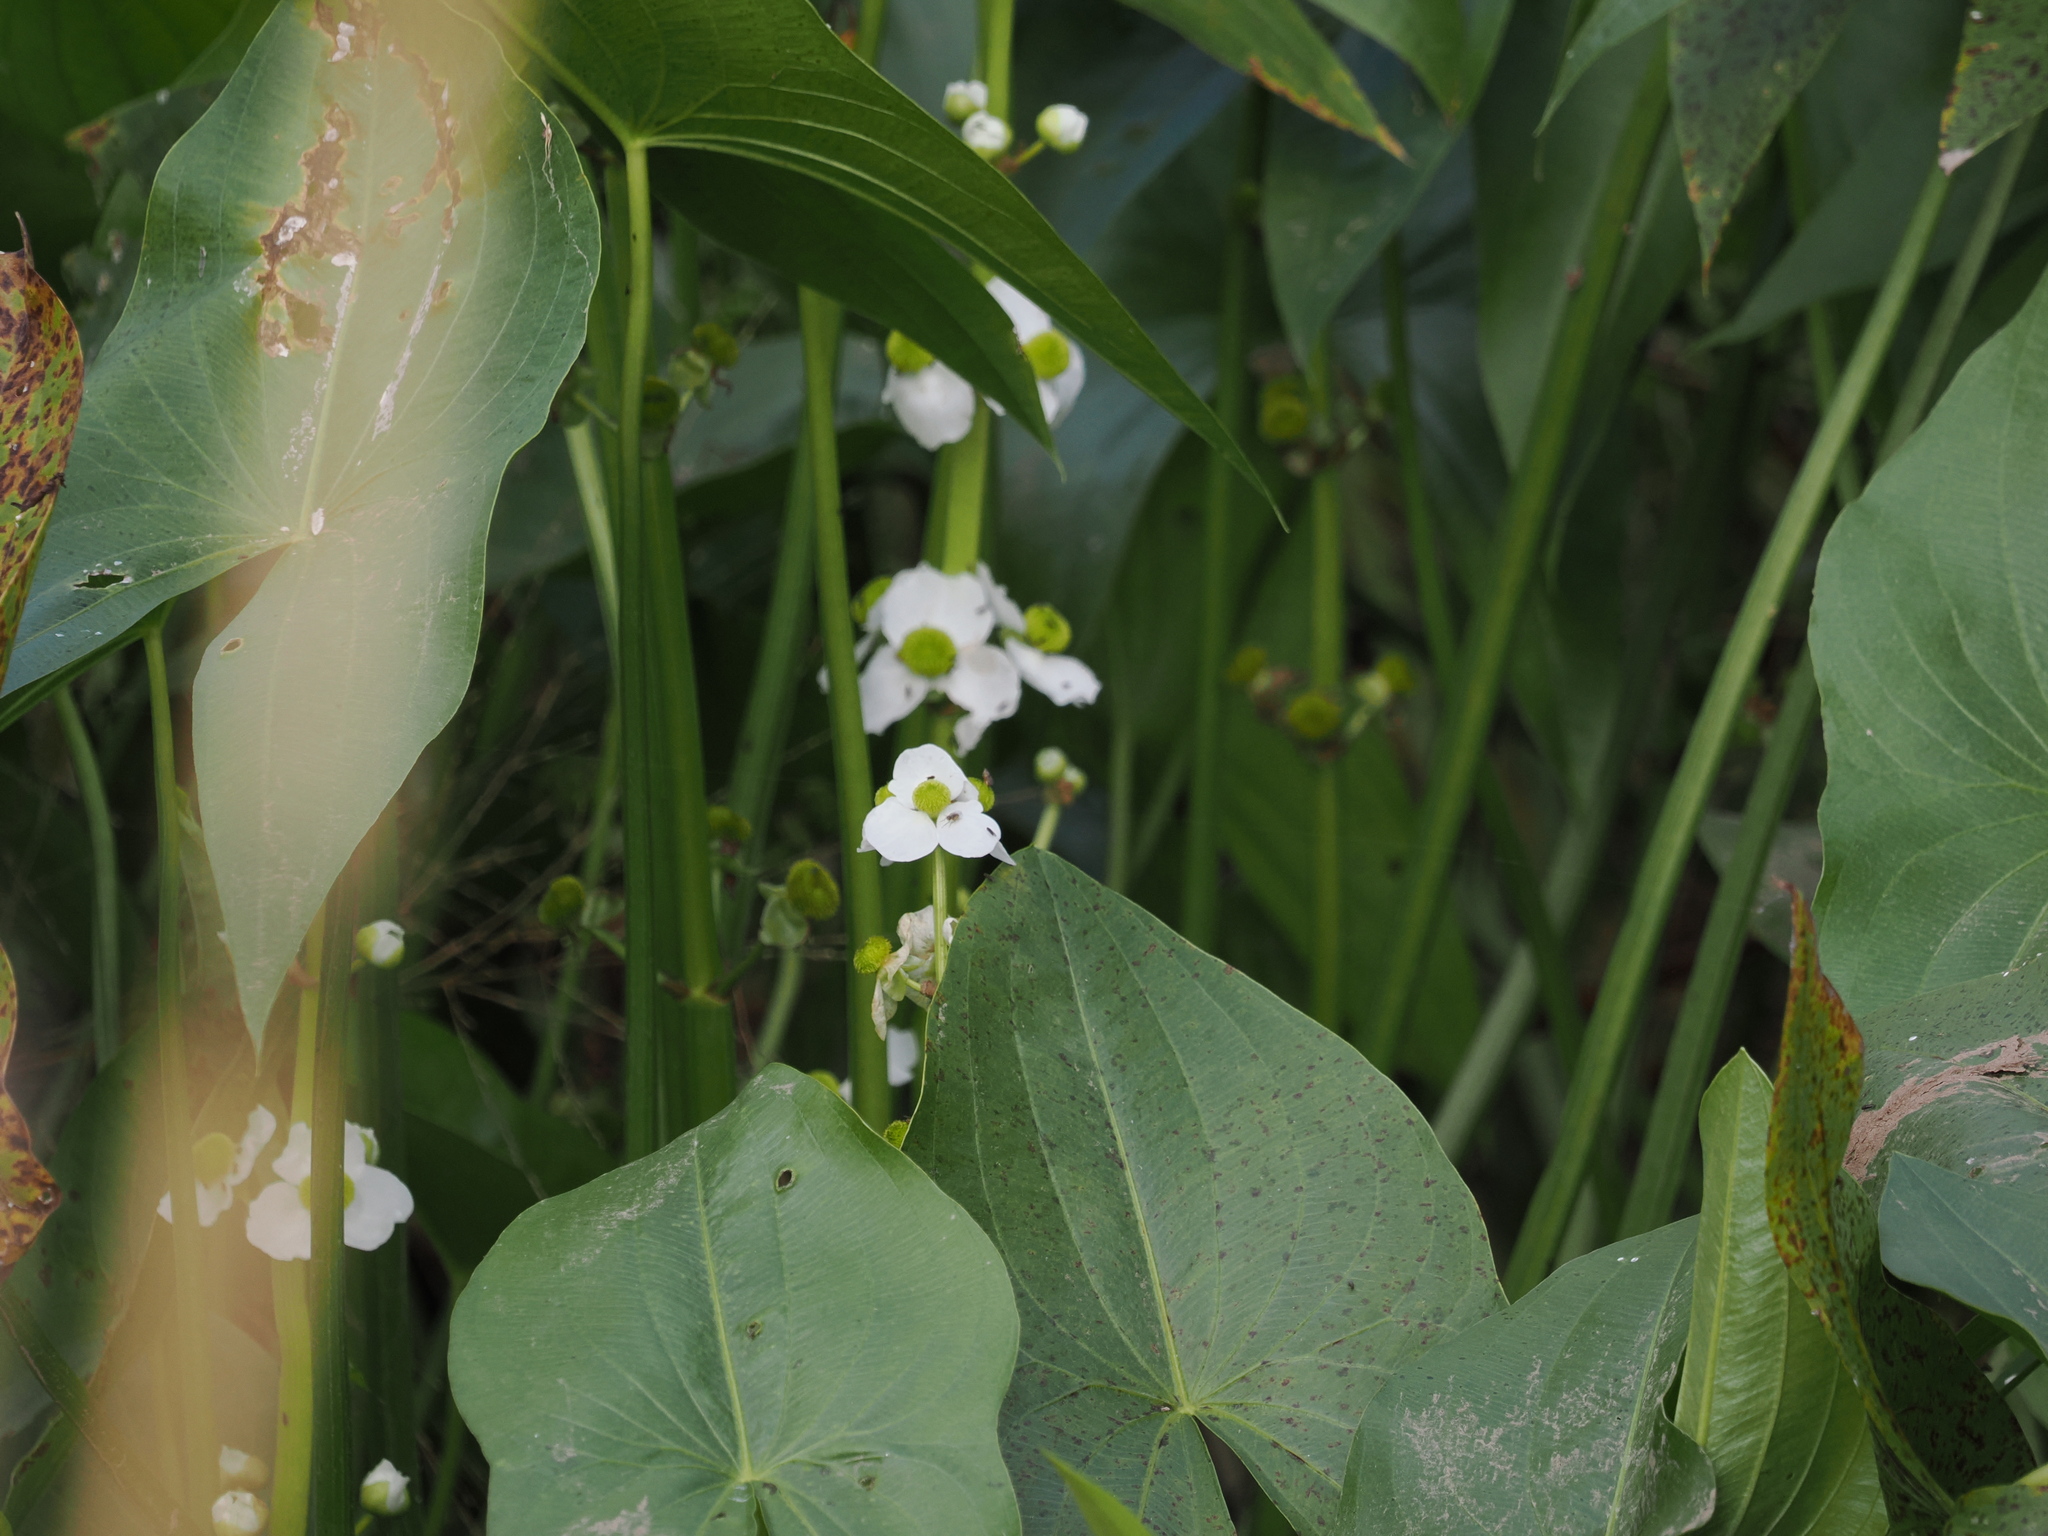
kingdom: Plantae
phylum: Tracheophyta
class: Liliopsida
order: Alismatales
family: Alismataceae
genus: Sagittaria
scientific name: Sagittaria latifolia
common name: Duck-potato
